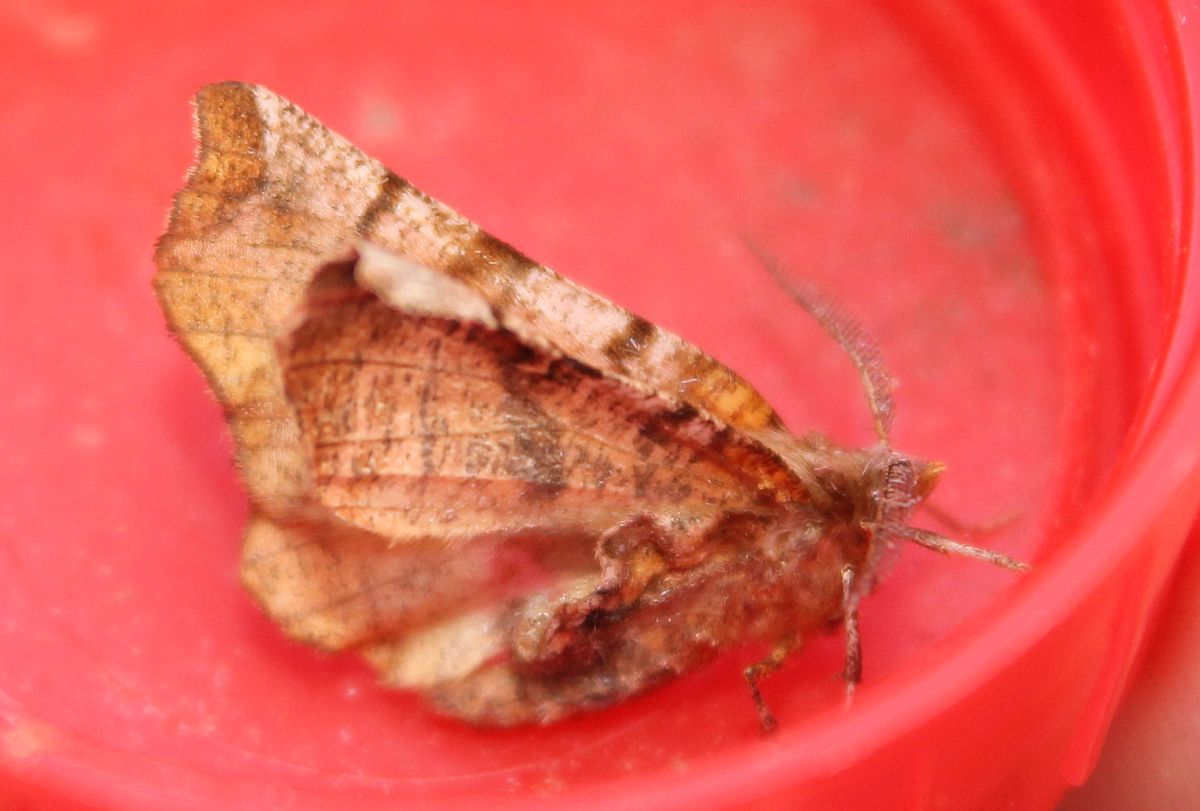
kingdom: Animalia
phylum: Arthropoda
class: Insecta
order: Lepidoptera
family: Geometridae
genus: Selenia
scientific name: Selenia dentaria
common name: Early thorn
